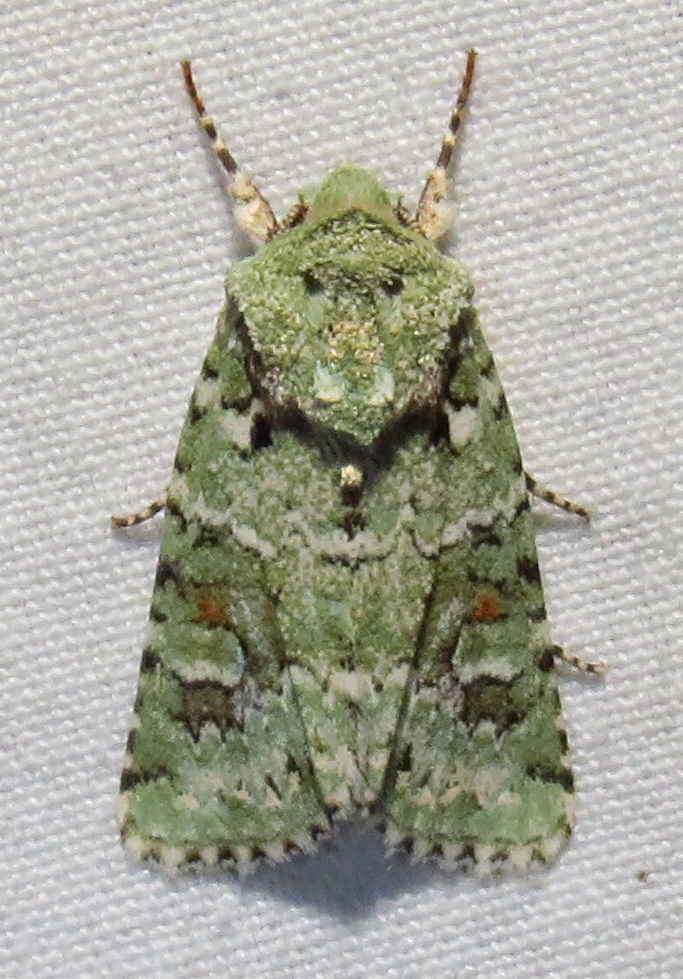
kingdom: Animalia
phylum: Arthropoda
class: Insecta
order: Lepidoptera
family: Noctuidae
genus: Lacinipolia
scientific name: Lacinipolia laudabilis
